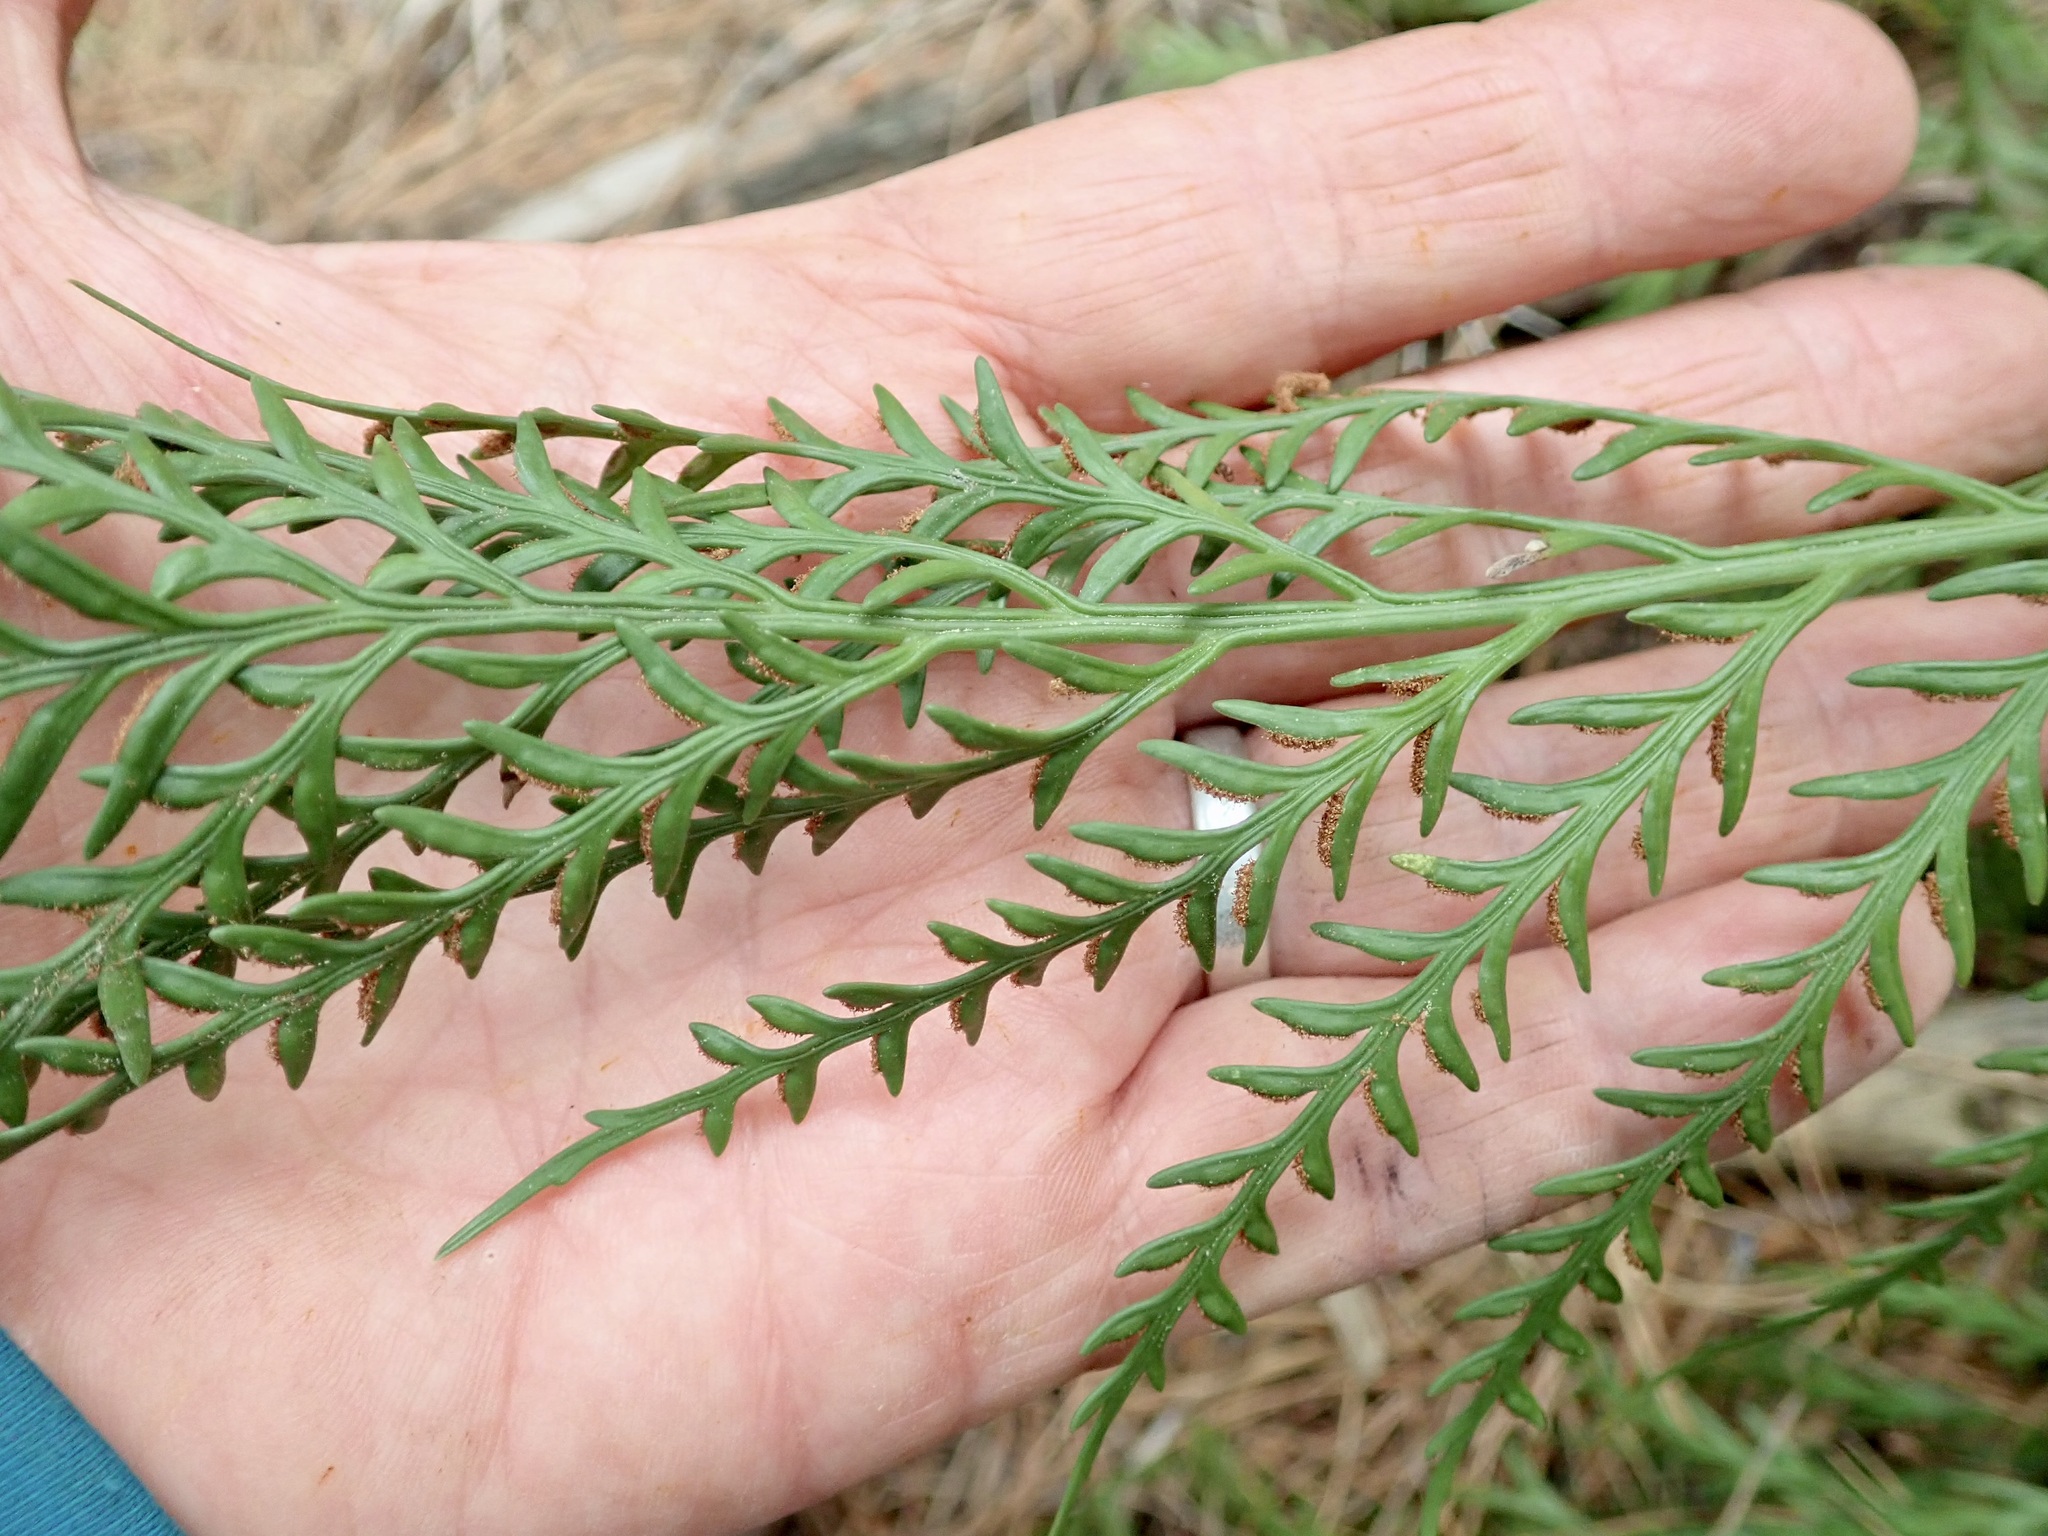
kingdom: Plantae
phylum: Tracheophyta
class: Polypodiopsida
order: Polypodiales
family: Aspleniaceae
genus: Asplenium
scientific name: Asplenium flaccidum
